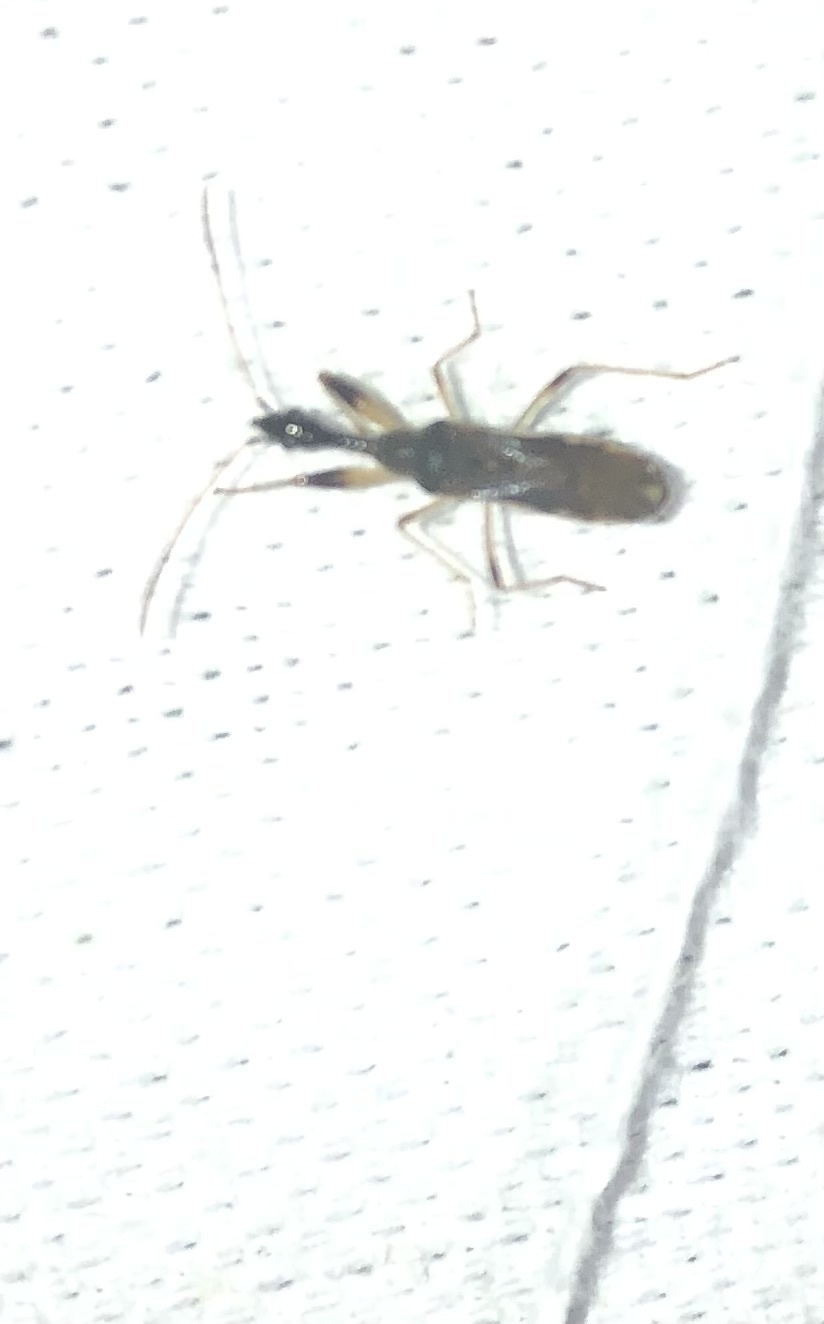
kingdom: Animalia
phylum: Arthropoda
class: Insecta
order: Hemiptera
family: Rhyparochromidae
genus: Myodocha
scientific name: Myodocha serripes
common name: Long-necked seed bug
